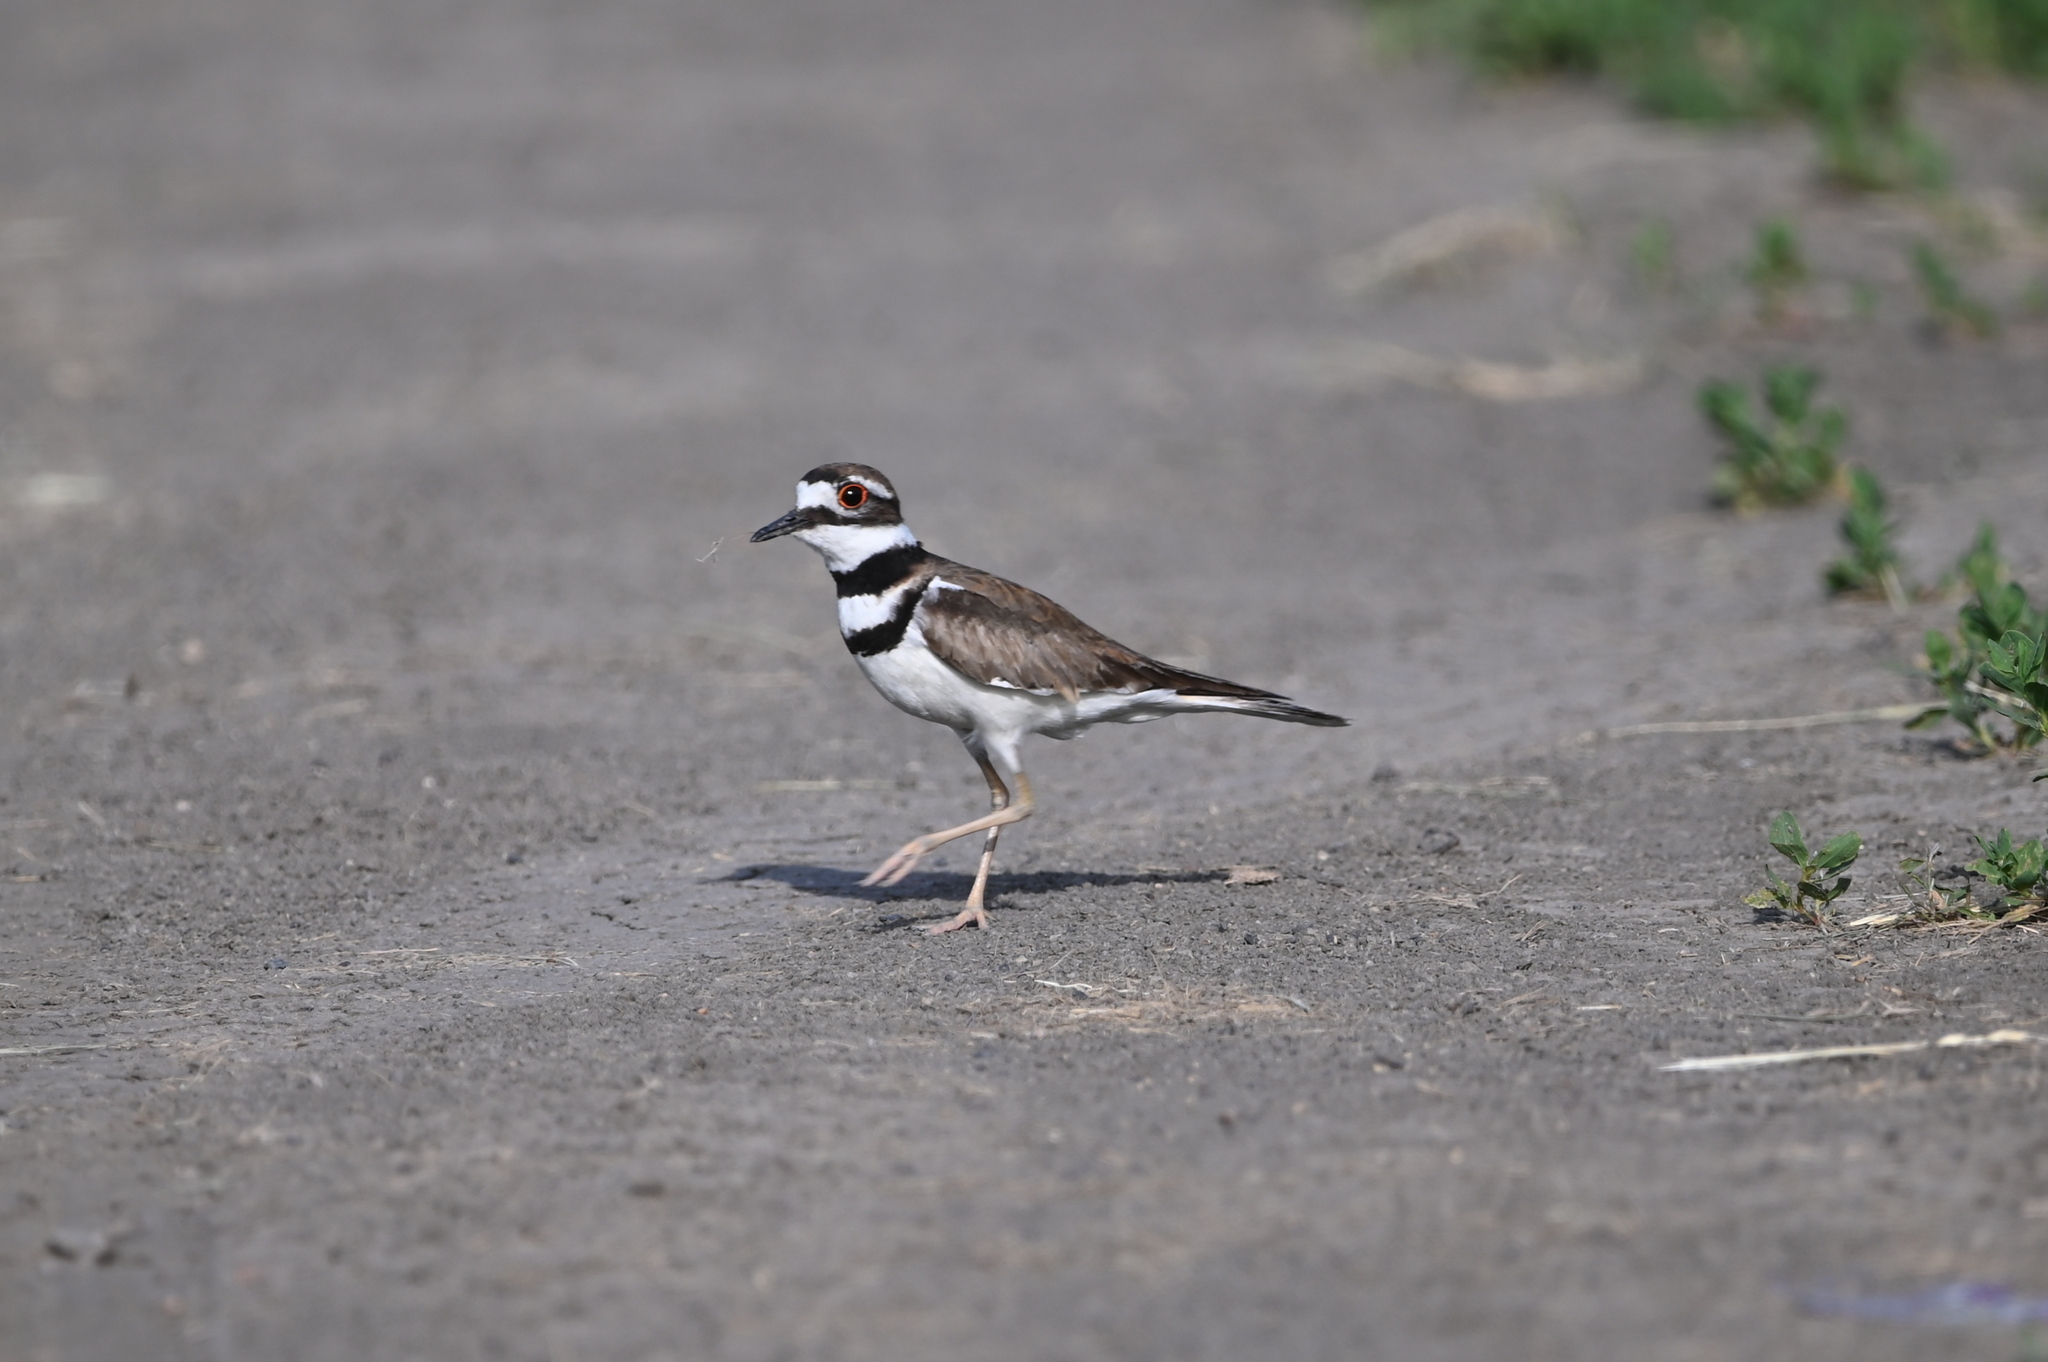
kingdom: Animalia
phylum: Chordata
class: Aves
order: Charadriiformes
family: Charadriidae
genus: Charadrius
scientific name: Charadrius vociferus
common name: Killdeer
